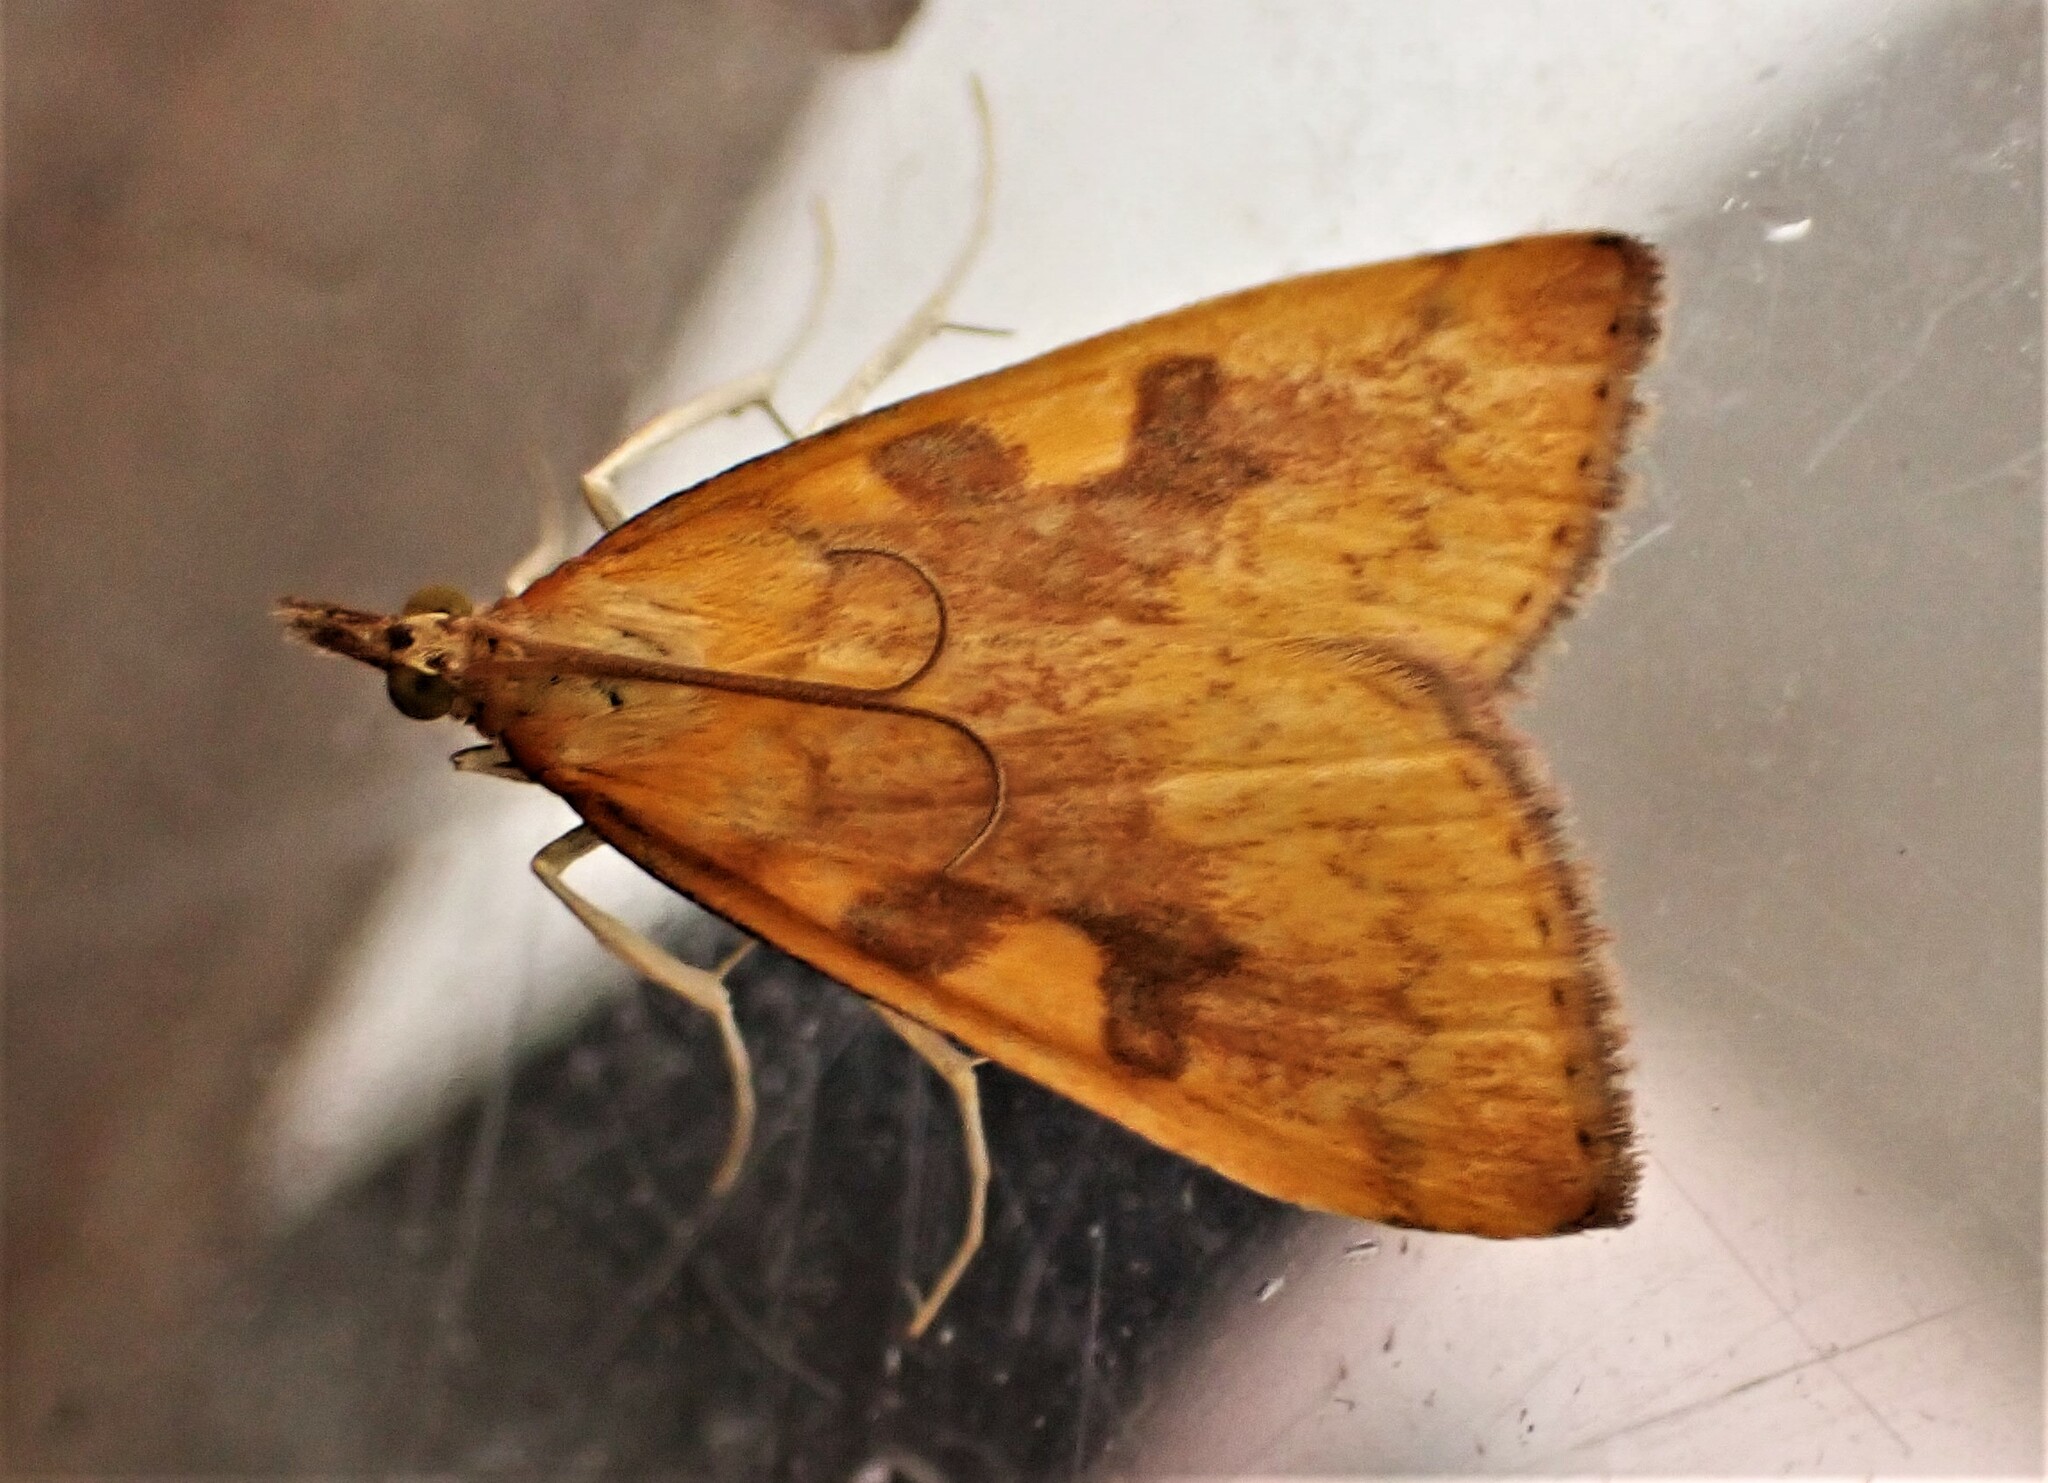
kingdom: Animalia
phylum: Arthropoda
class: Insecta
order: Lepidoptera
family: Crambidae
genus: Udea
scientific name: Udea Mnesictena flavidalis
